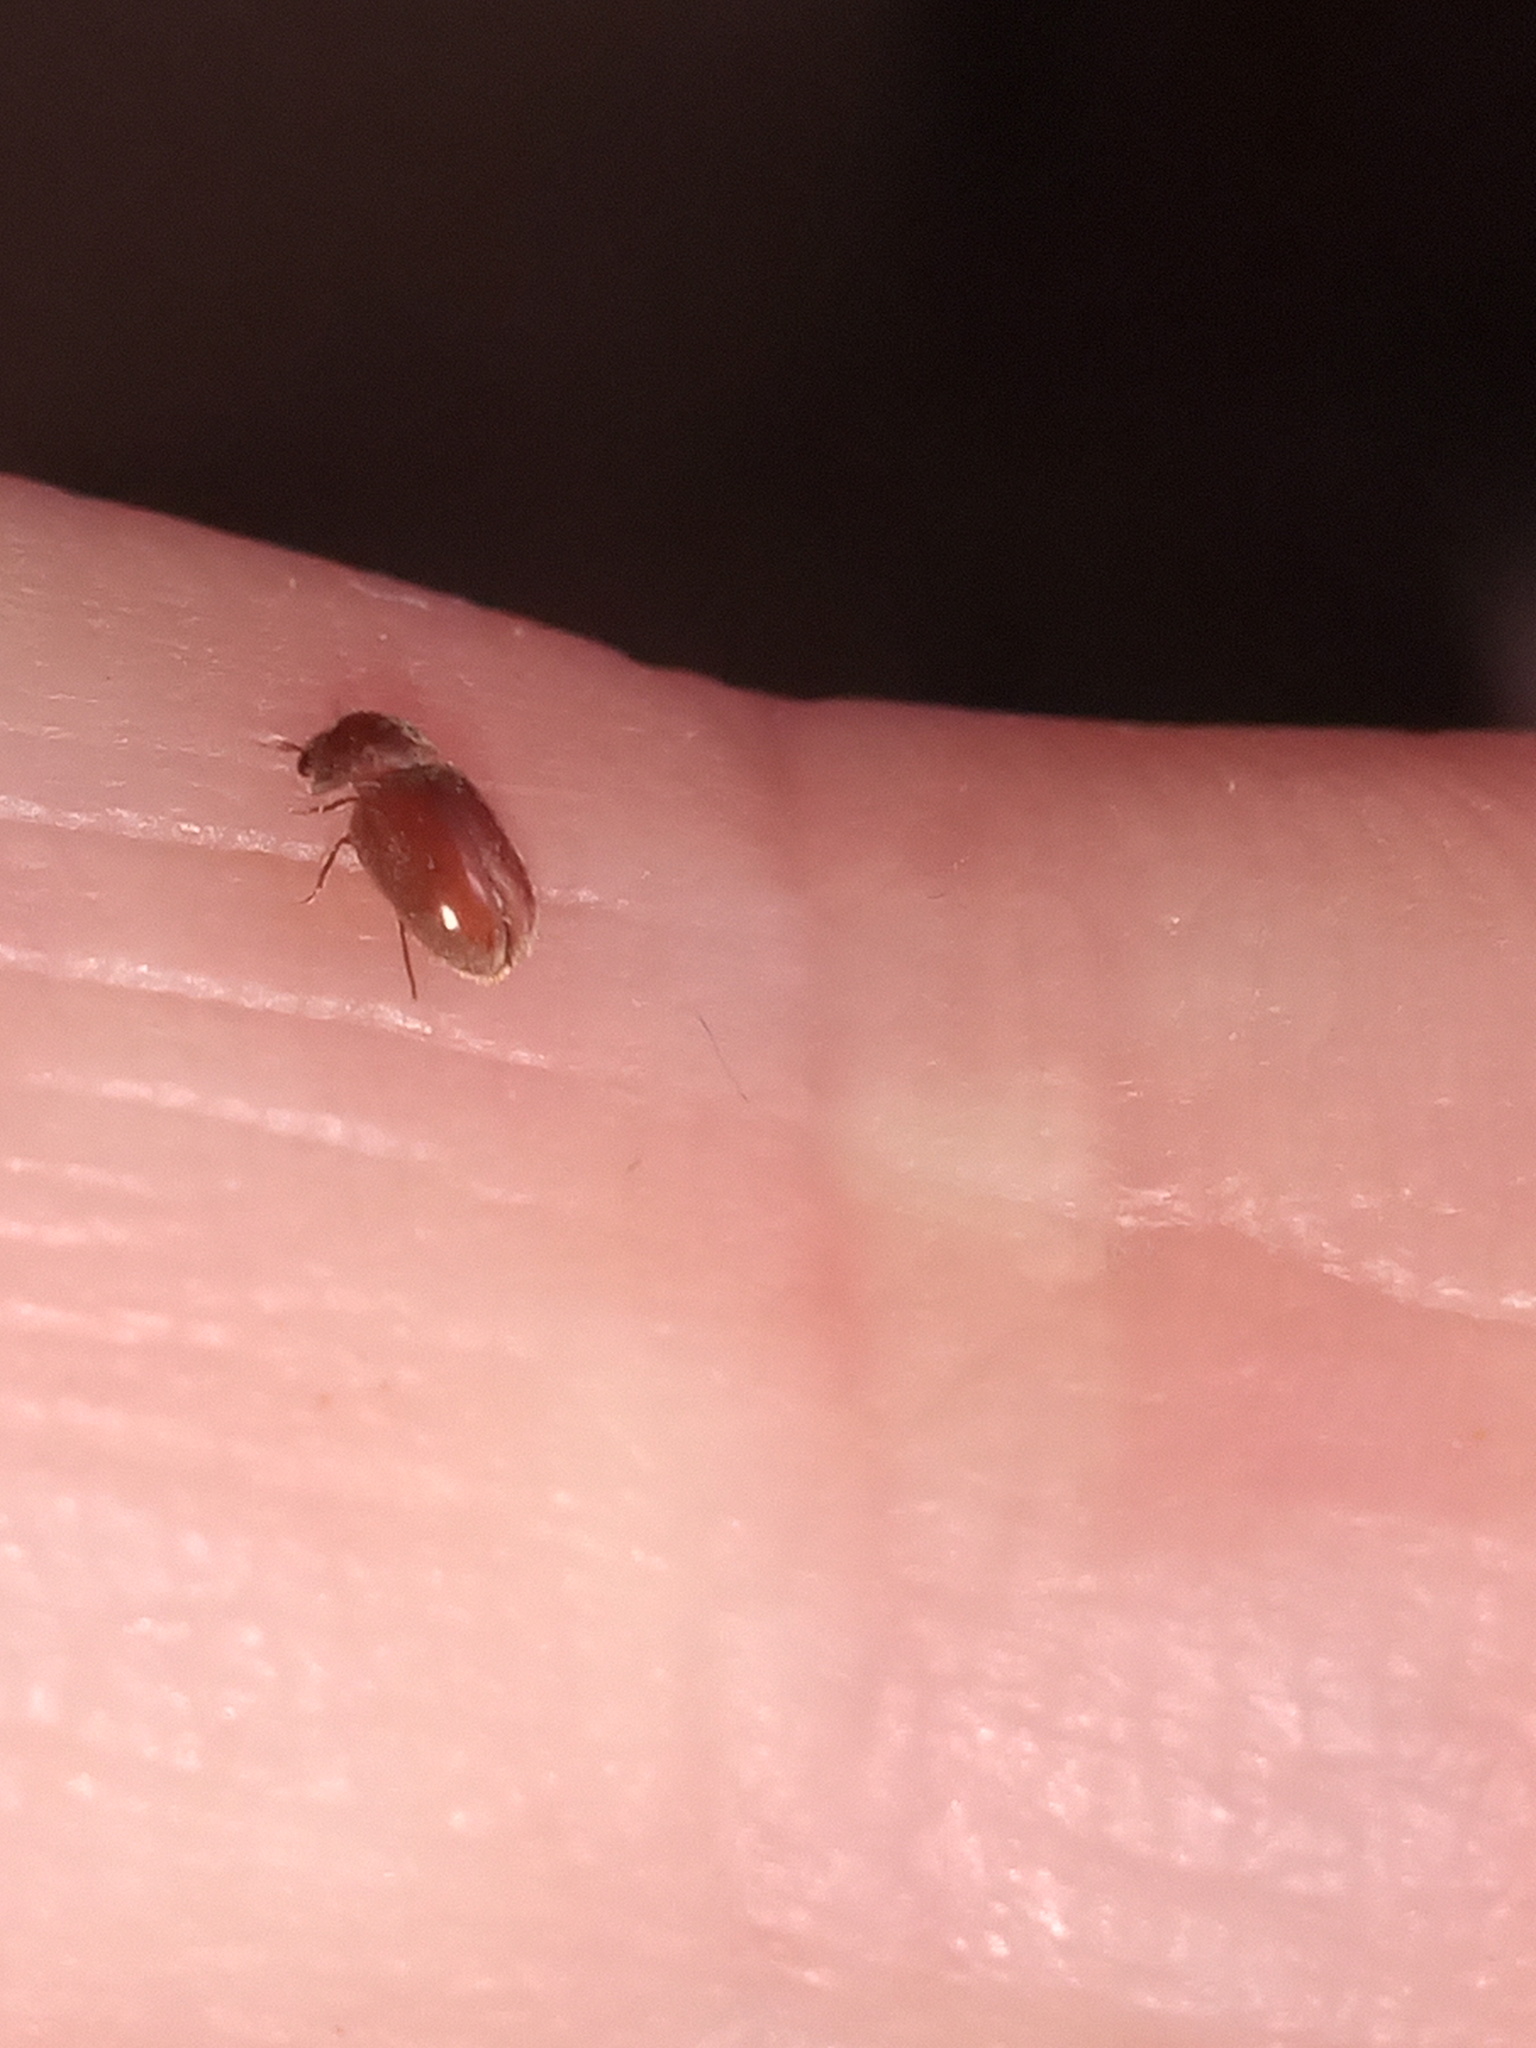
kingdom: Animalia
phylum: Arthropoda
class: Insecta
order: Coleoptera
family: Anobiidae
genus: Lasioderma
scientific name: Lasioderma serricorne
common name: Cigarette beetle
